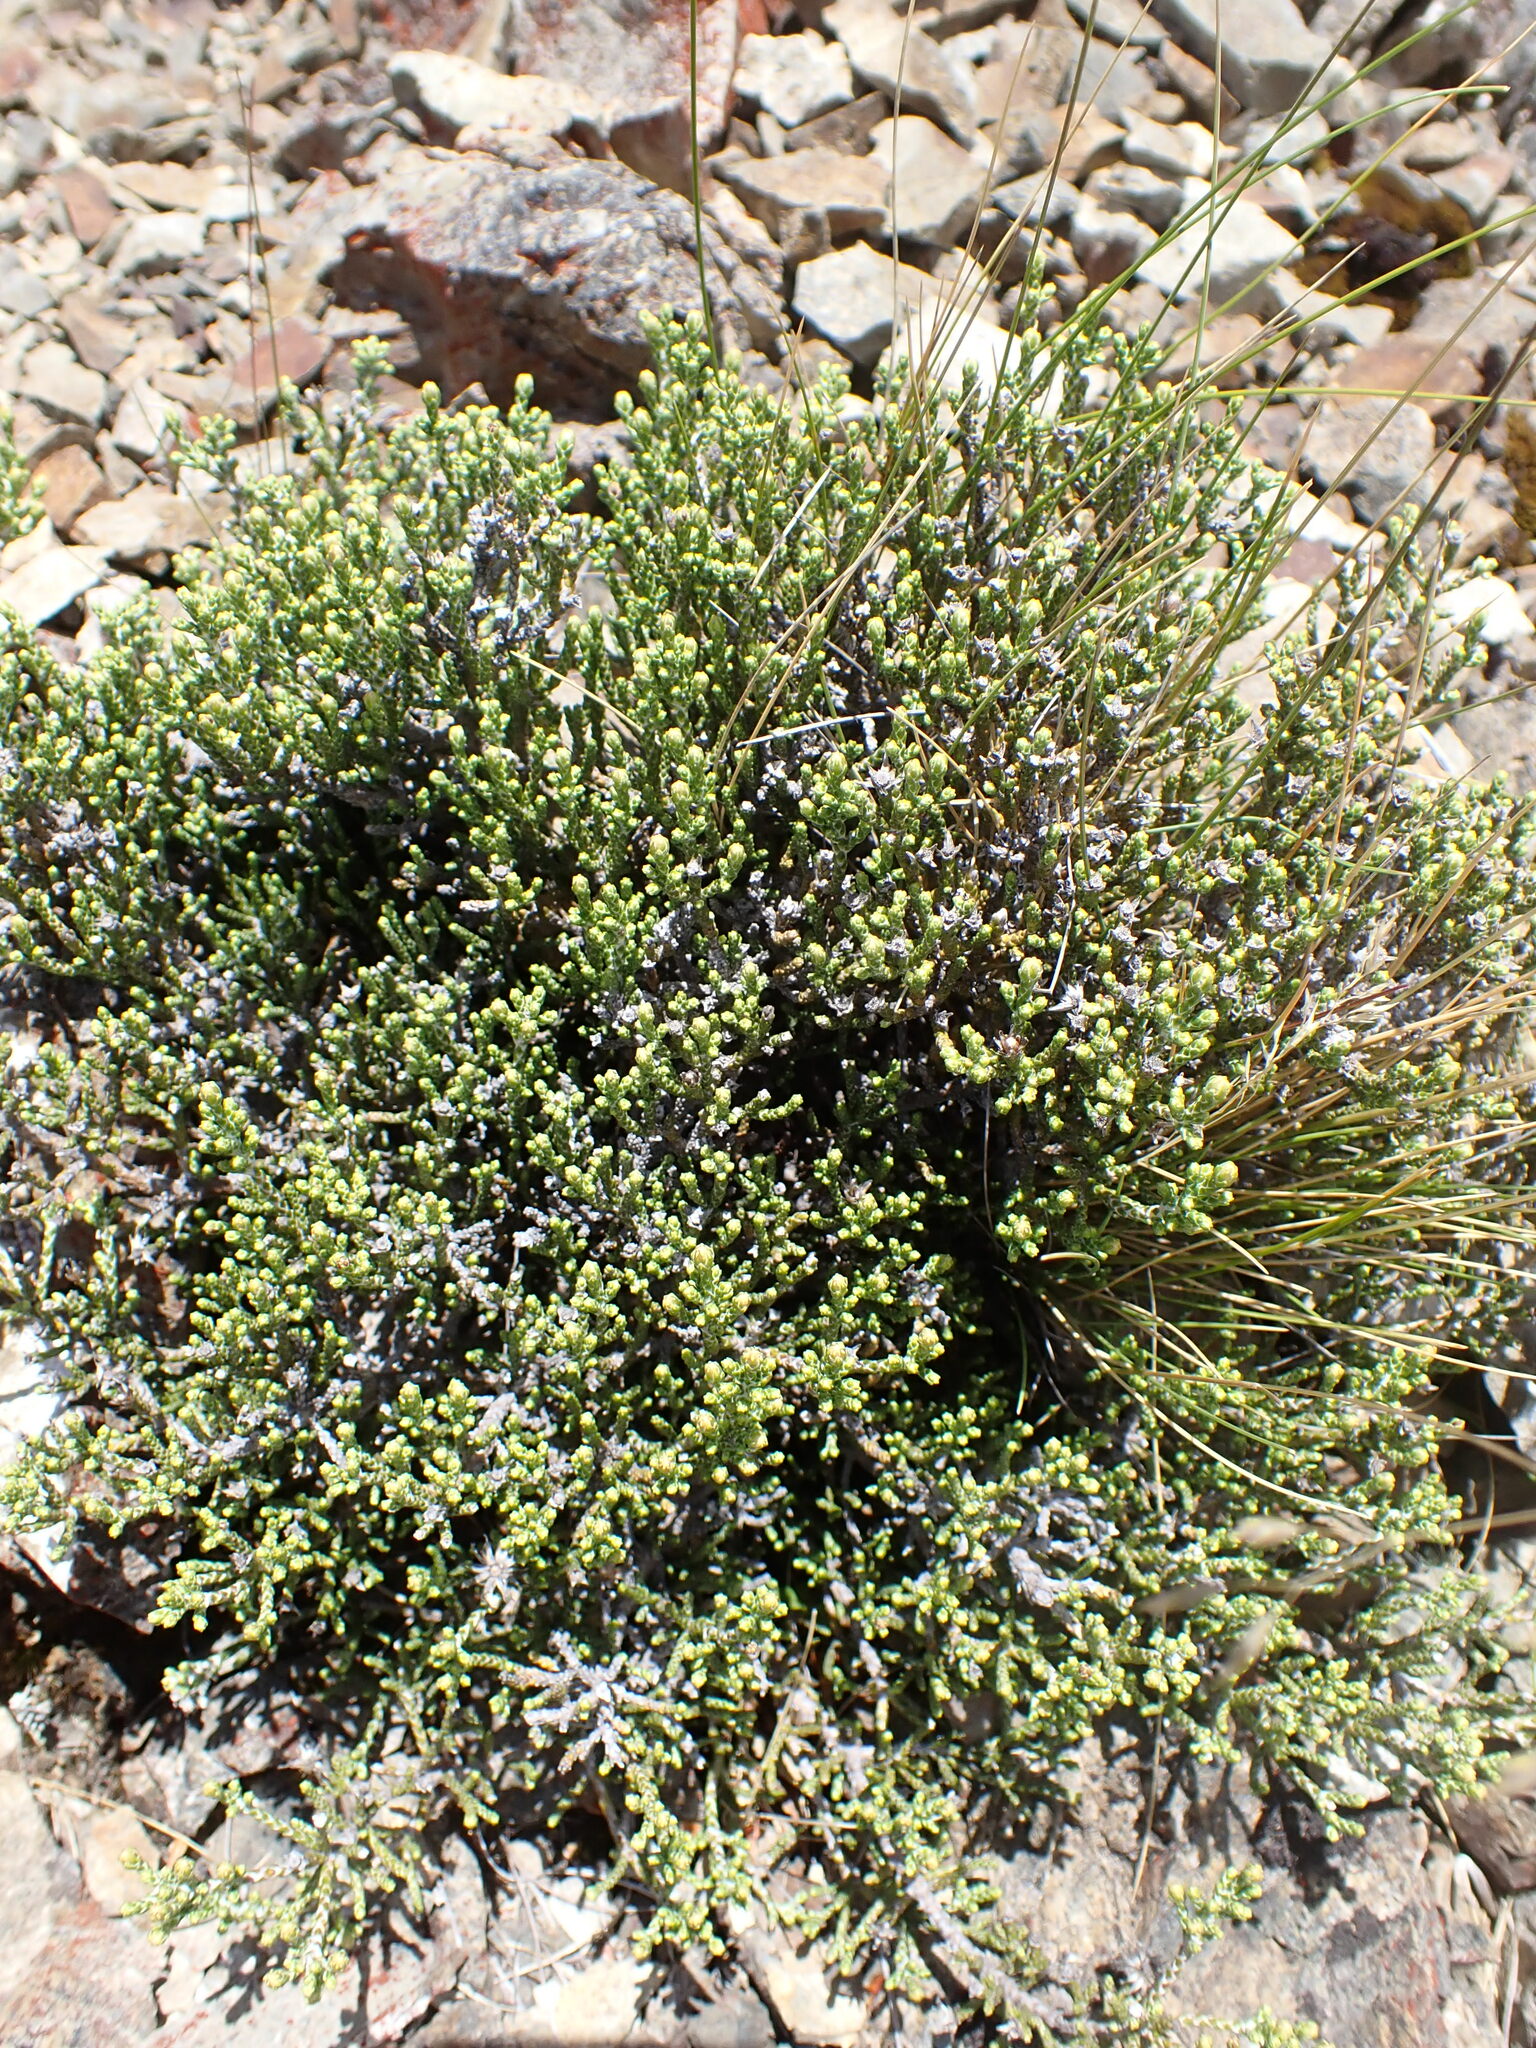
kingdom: Plantae
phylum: Tracheophyta
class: Magnoliopsida
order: Asterales
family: Asteraceae
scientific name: Asteraceae
